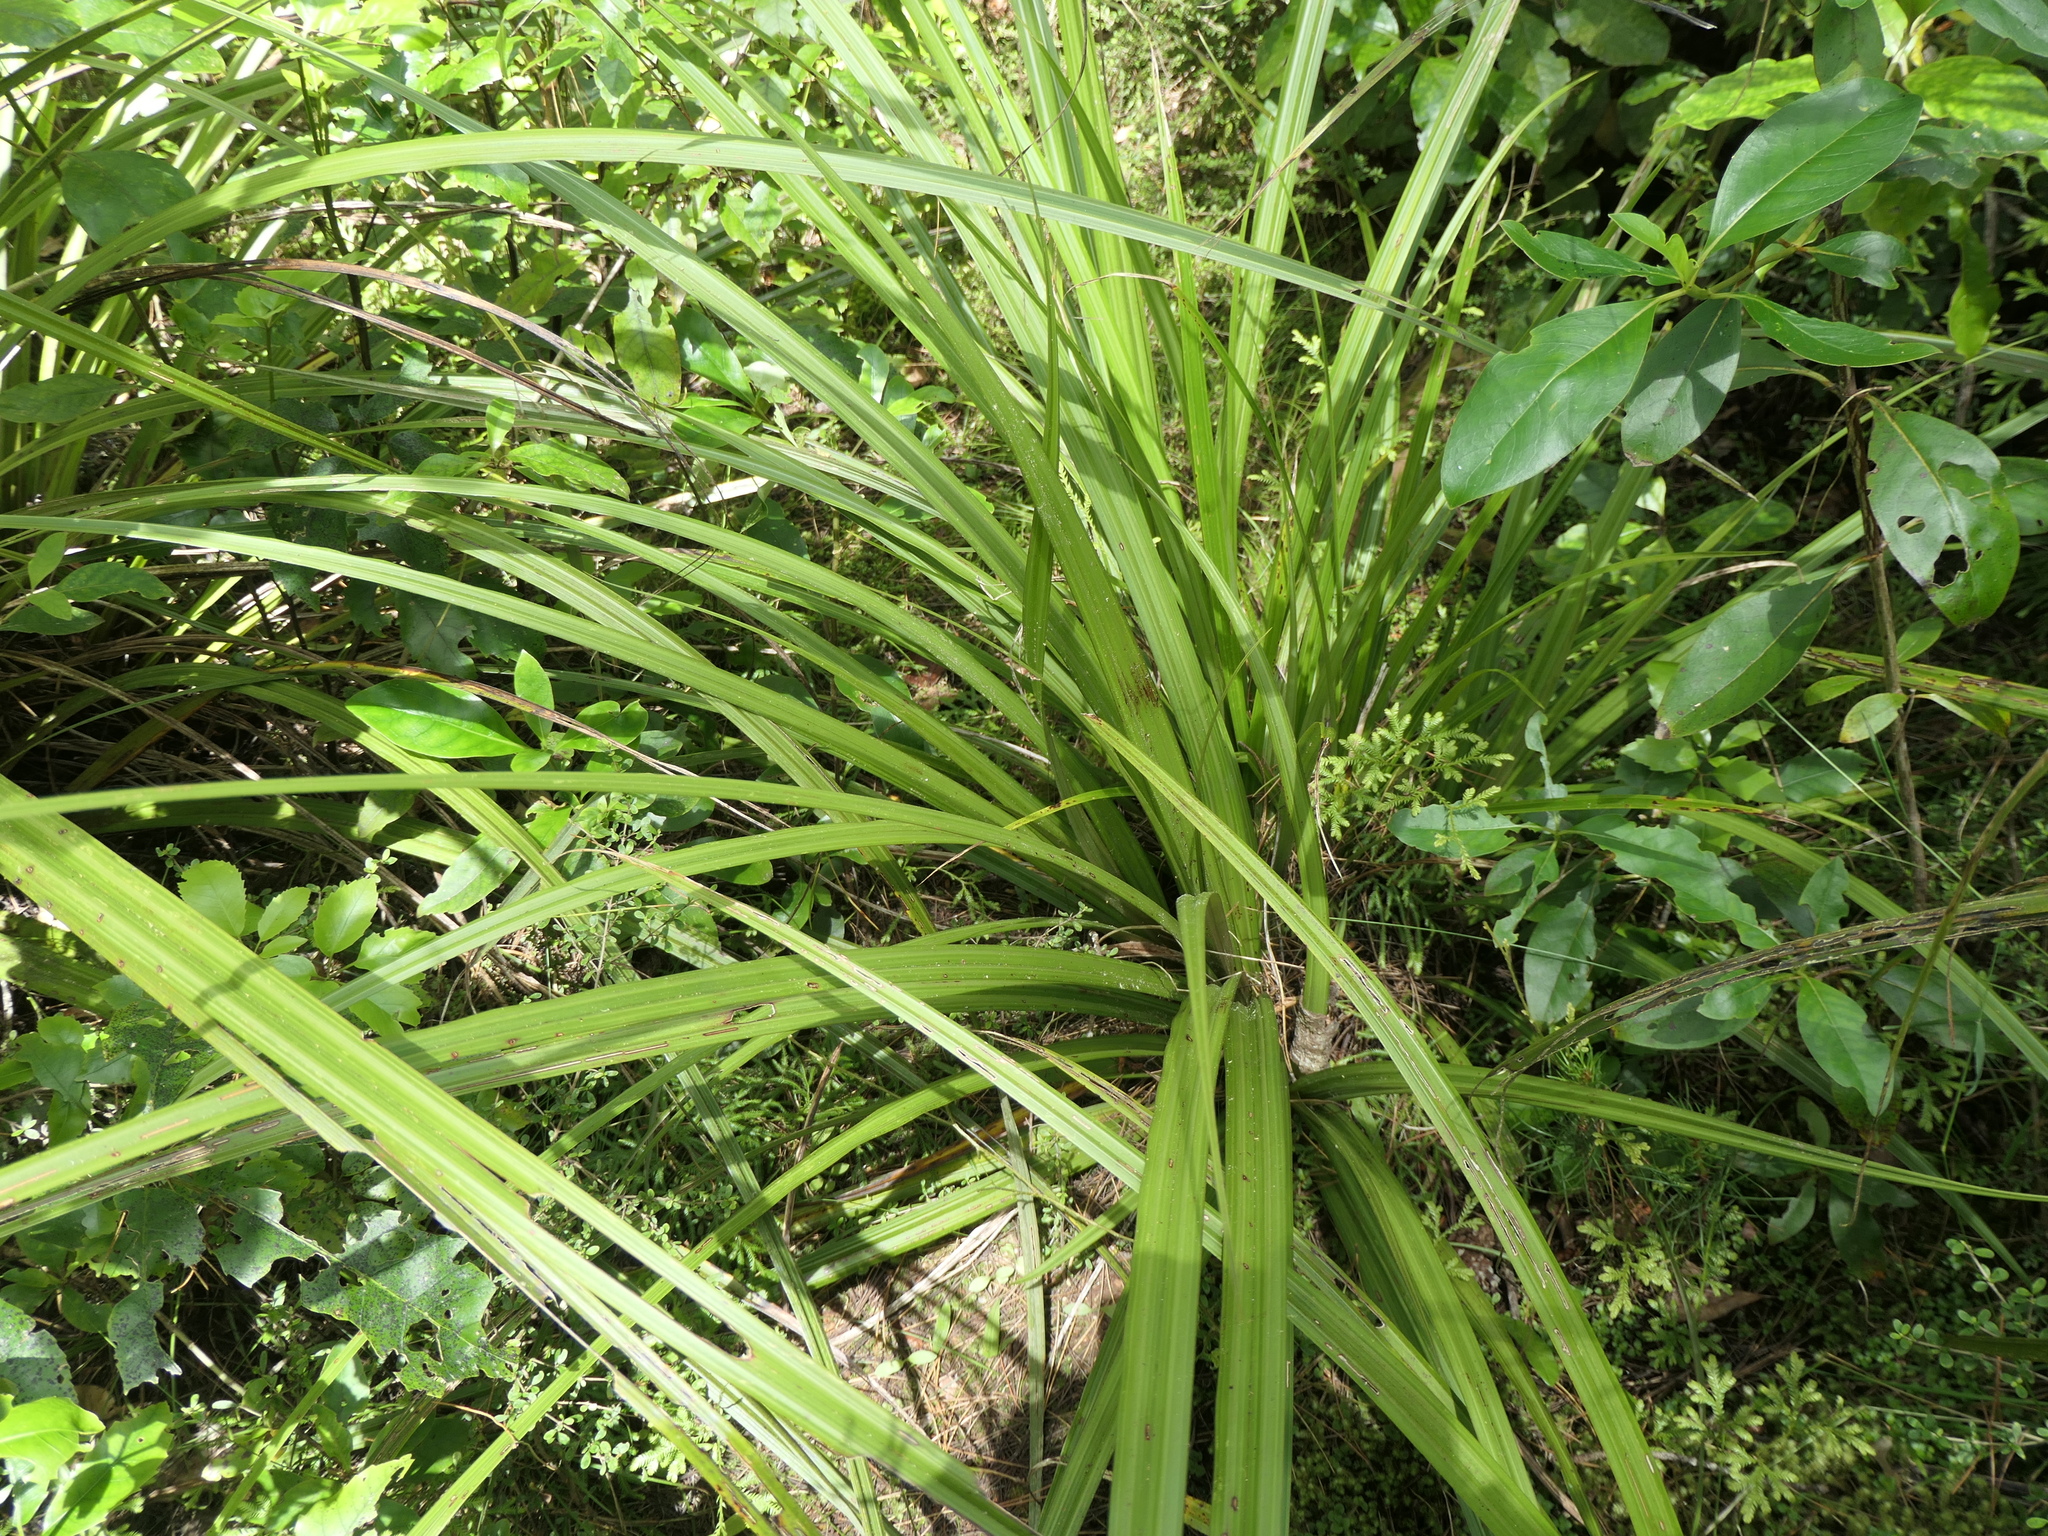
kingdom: Plantae
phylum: Tracheophyta
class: Liliopsida
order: Asparagales
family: Asparagaceae
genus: Cordyline
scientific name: Cordyline australis
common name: Cabbage-palm
